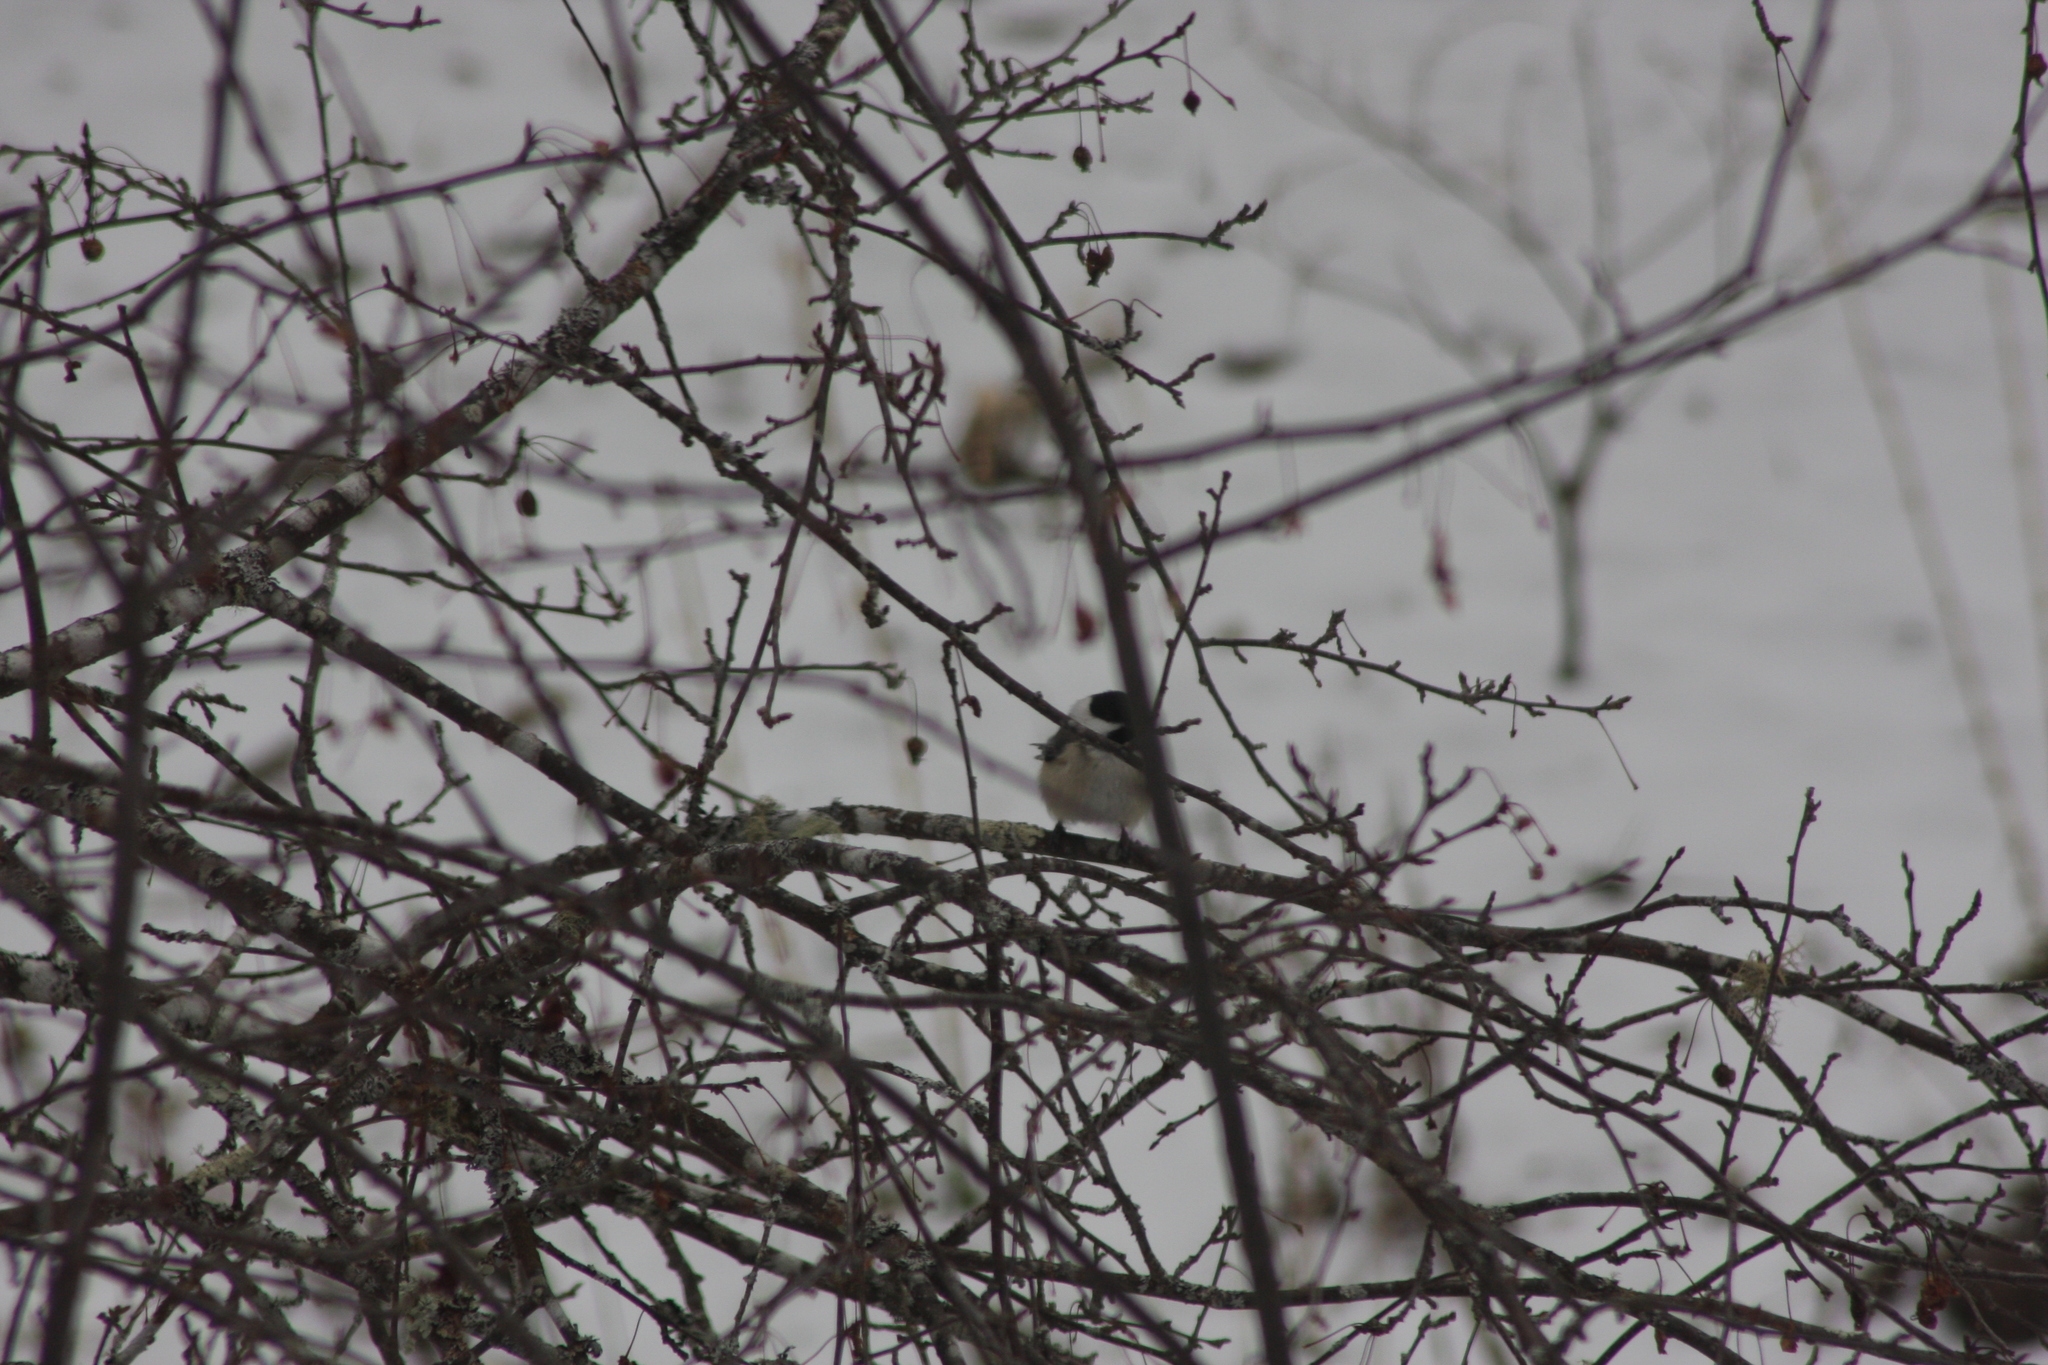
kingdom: Animalia
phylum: Chordata
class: Aves
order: Passeriformes
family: Paridae
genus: Poecile
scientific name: Poecile atricapillus
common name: Black-capped chickadee
